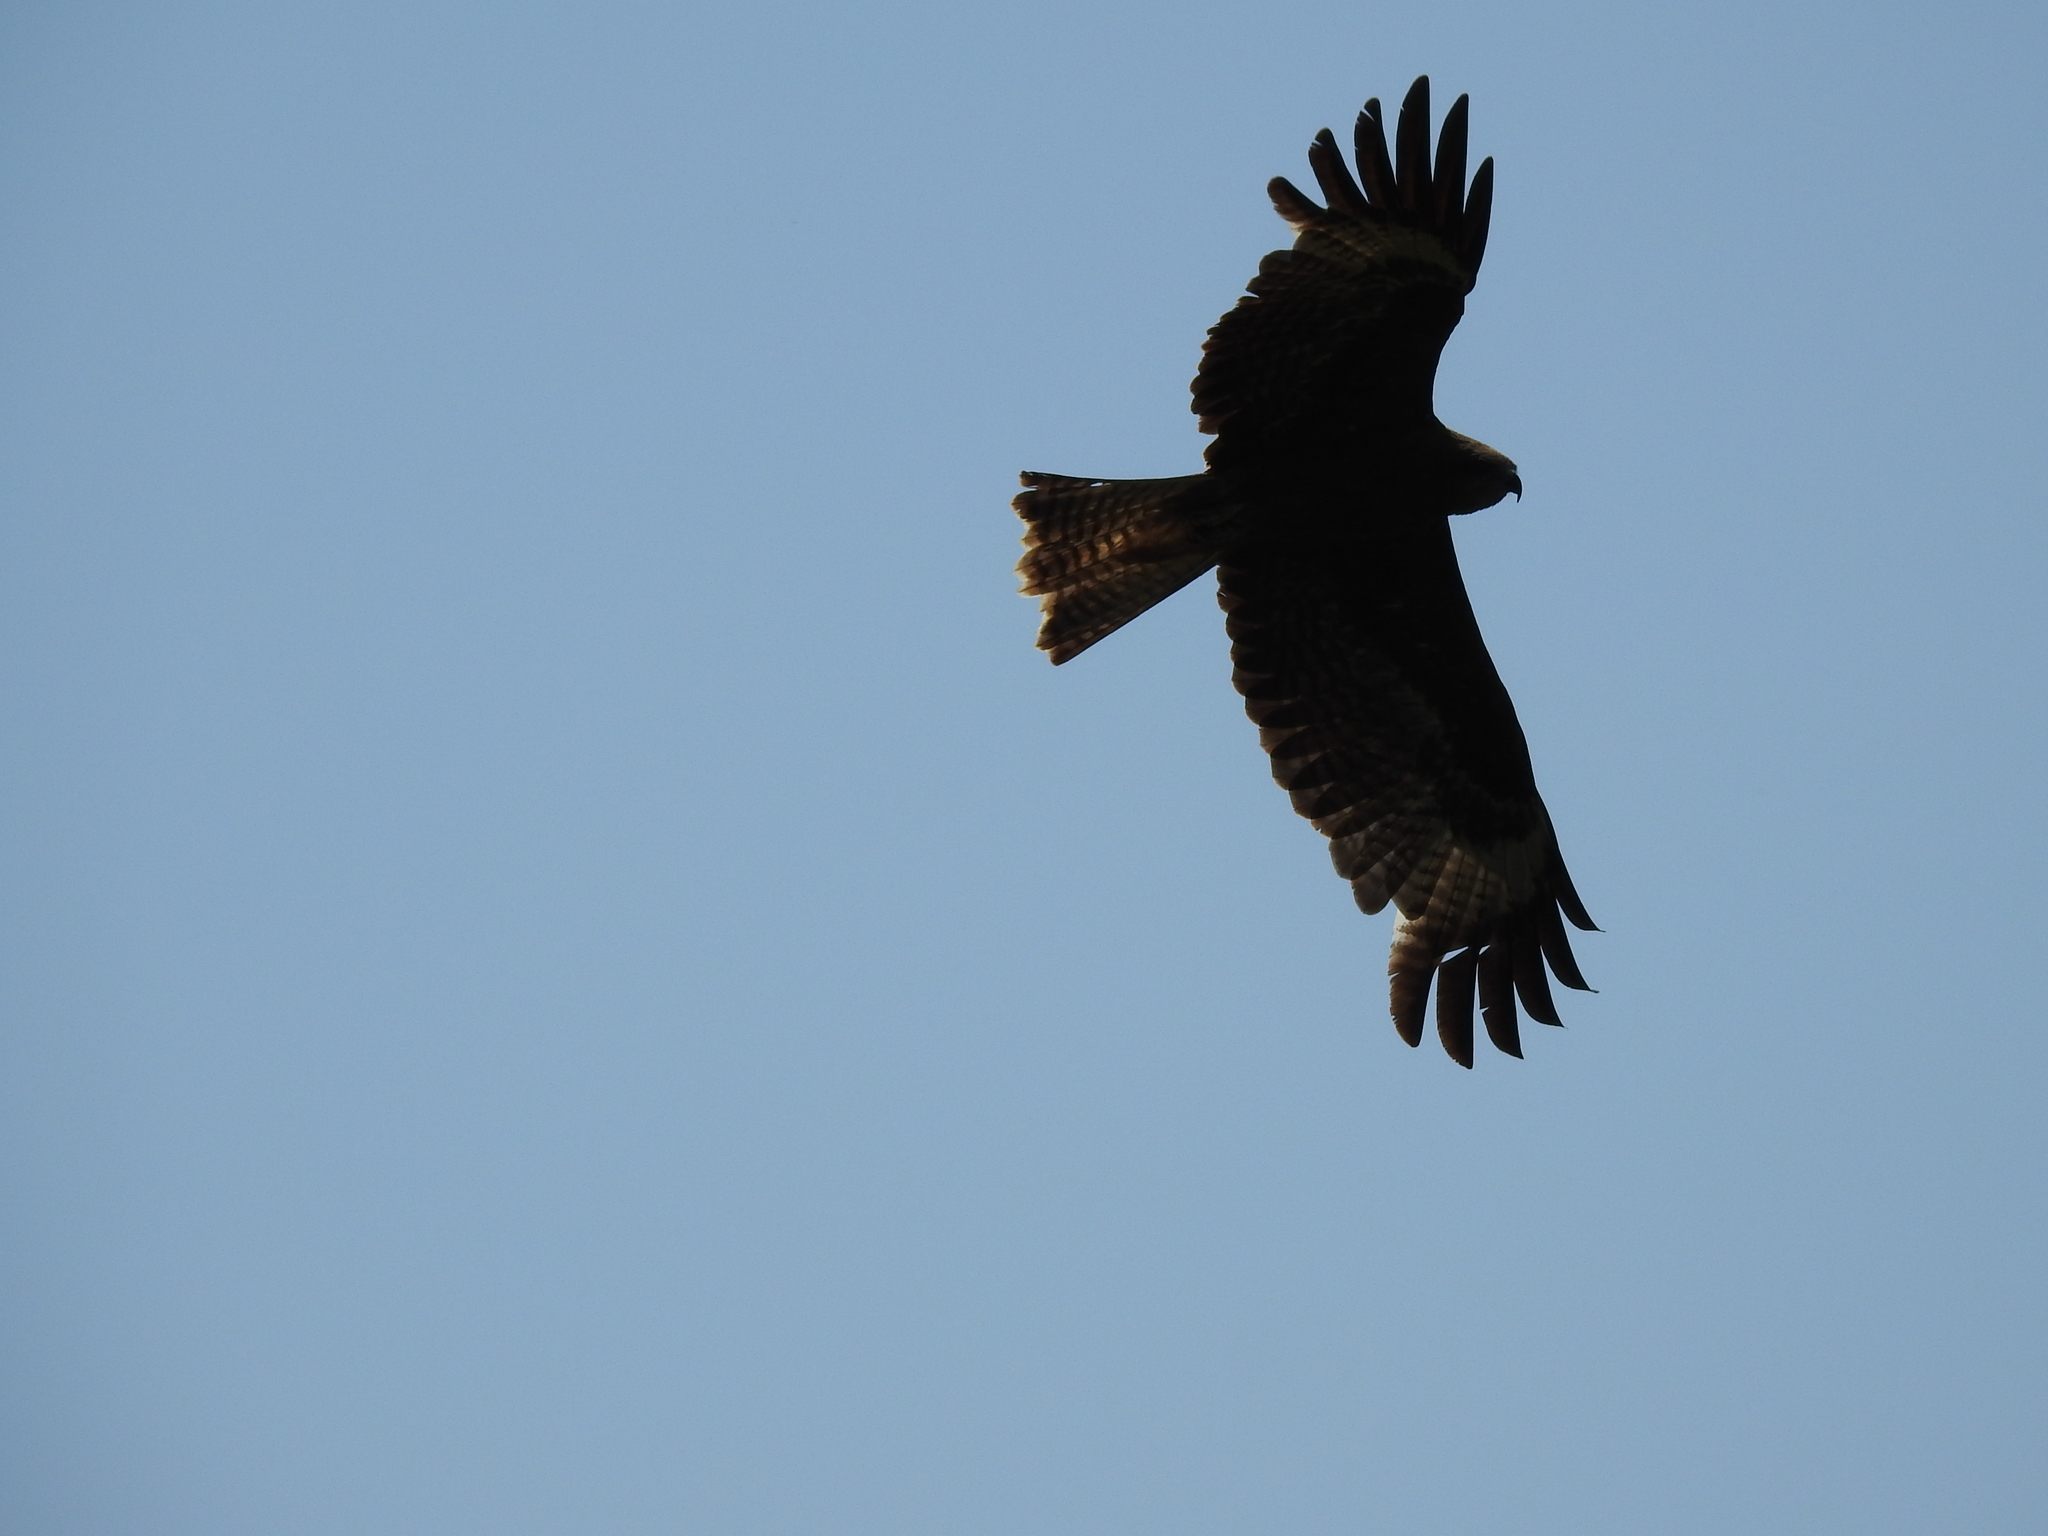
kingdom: Animalia
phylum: Chordata
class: Aves
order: Accipitriformes
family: Accipitridae
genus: Milvus
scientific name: Milvus migrans
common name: Black kite
